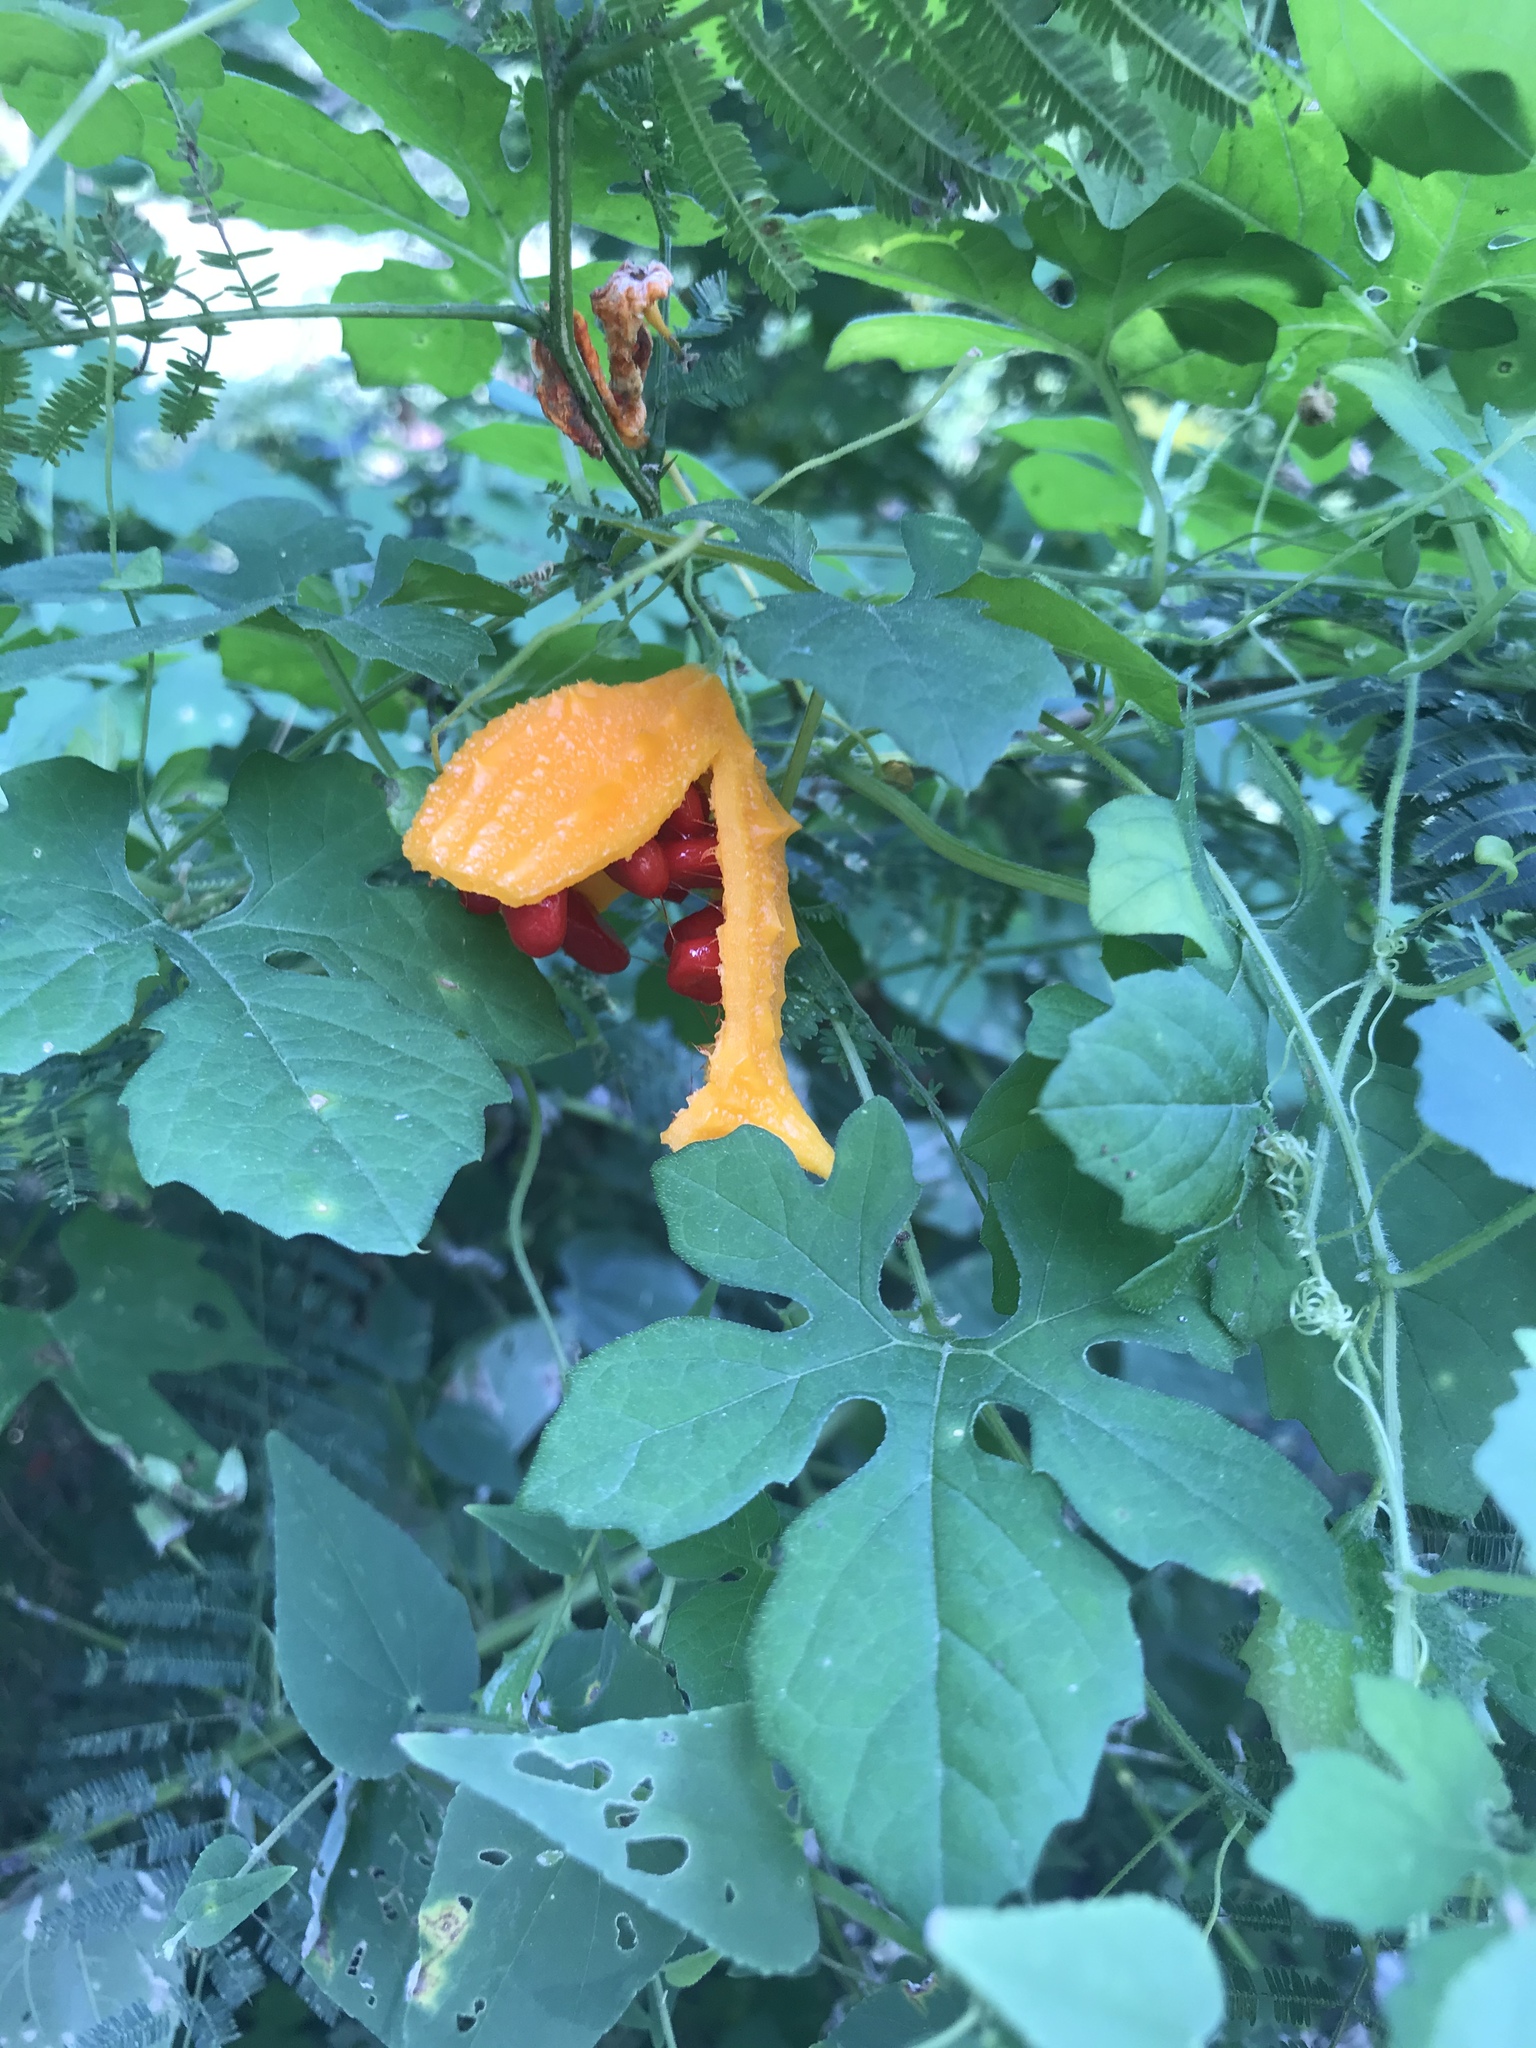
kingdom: Plantae
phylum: Tracheophyta
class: Magnoliopsida
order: Cucurbitales
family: Cucurbitaceae
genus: Momordica
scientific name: Momordica charantia
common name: Balsampear
